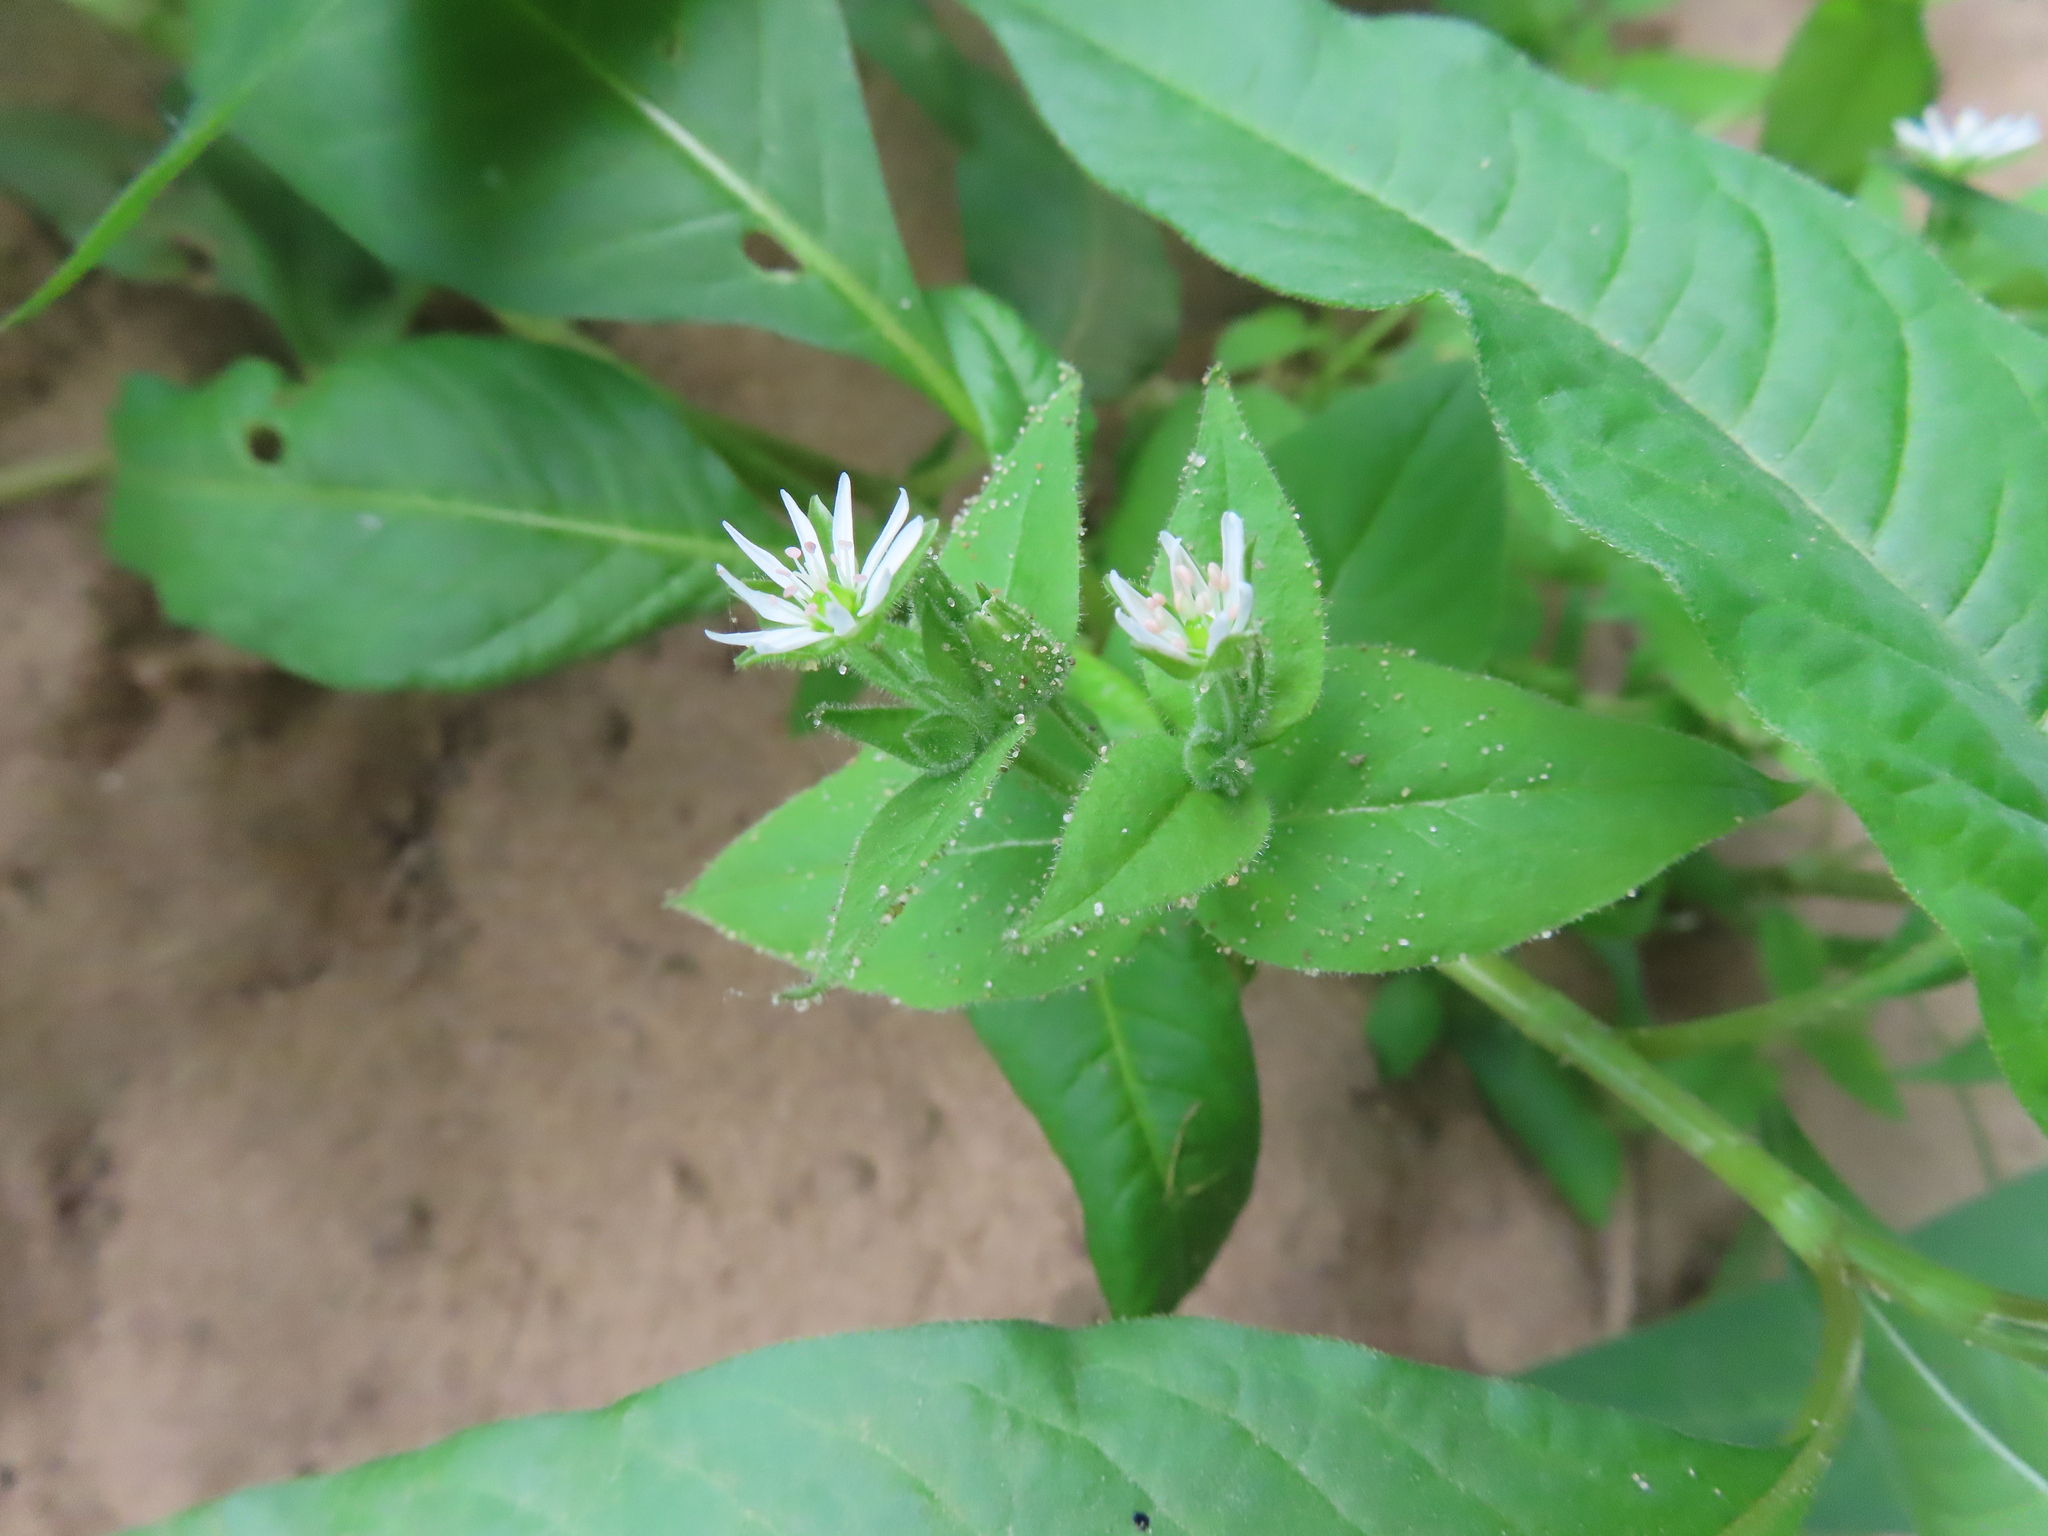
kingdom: Plantae
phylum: Tracheophyta
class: Magnoliopsida
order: Caryophyllales
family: Caryophyllaceae
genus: Stellaria
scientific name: Stellaria aquatica
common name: Water chickweed
